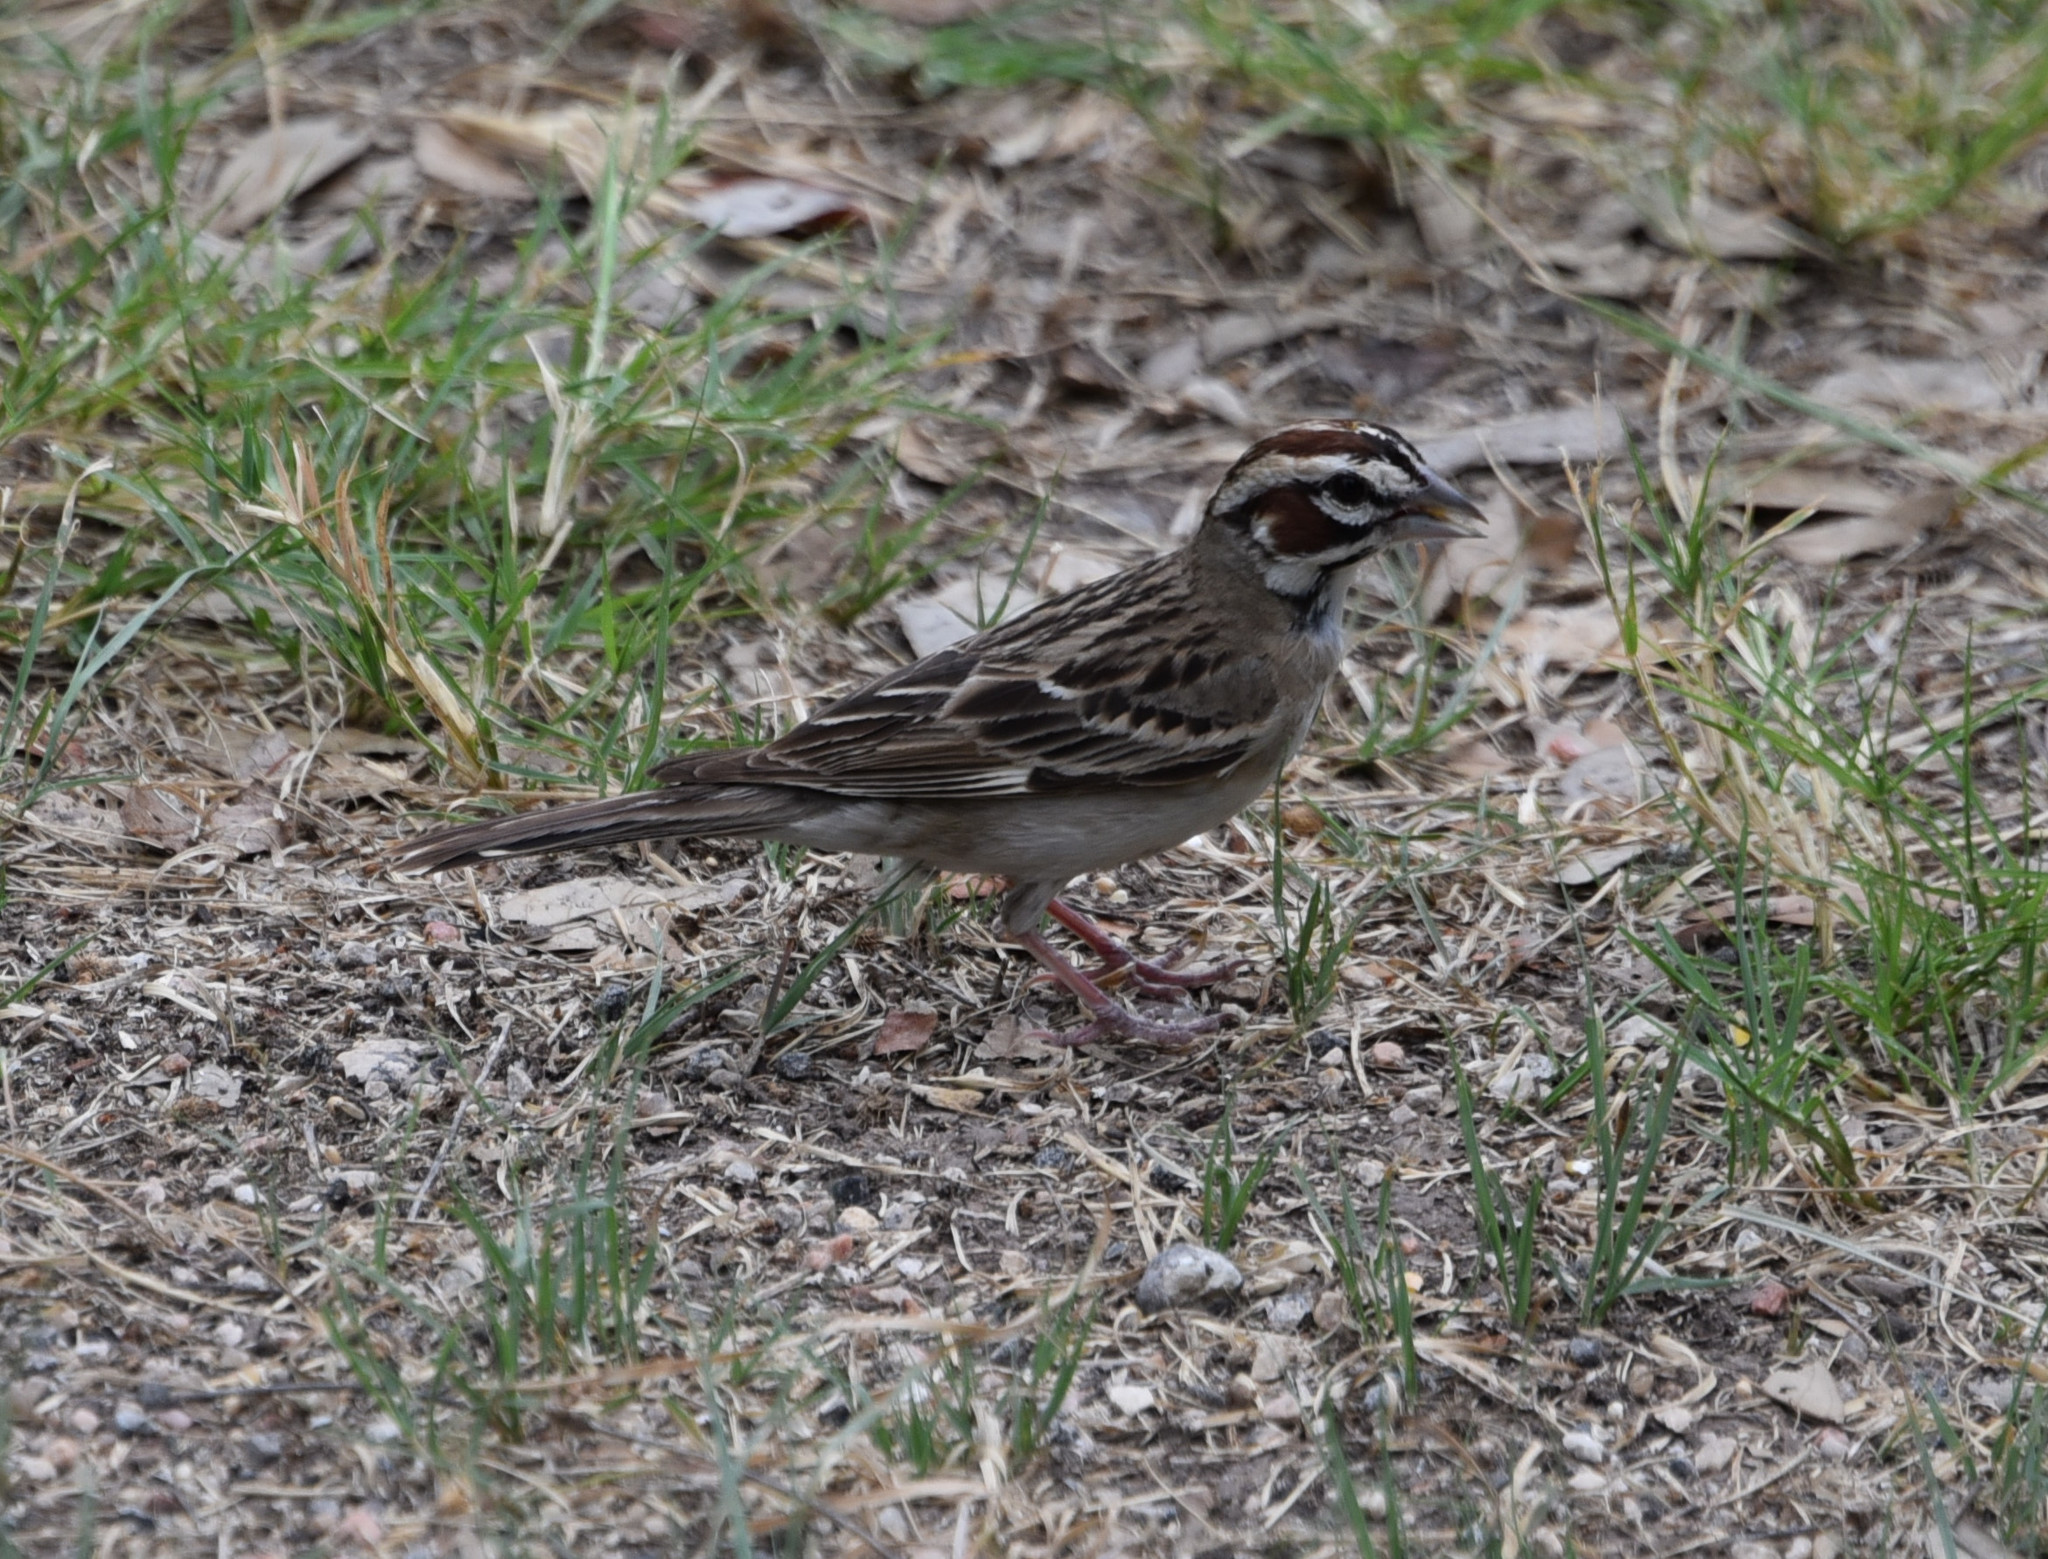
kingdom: Animalia
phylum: Chordata
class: Aves
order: Passeriformes
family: Passerellidae
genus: Chondestes
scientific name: Chondestes grammacus
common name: Lark sparrow
